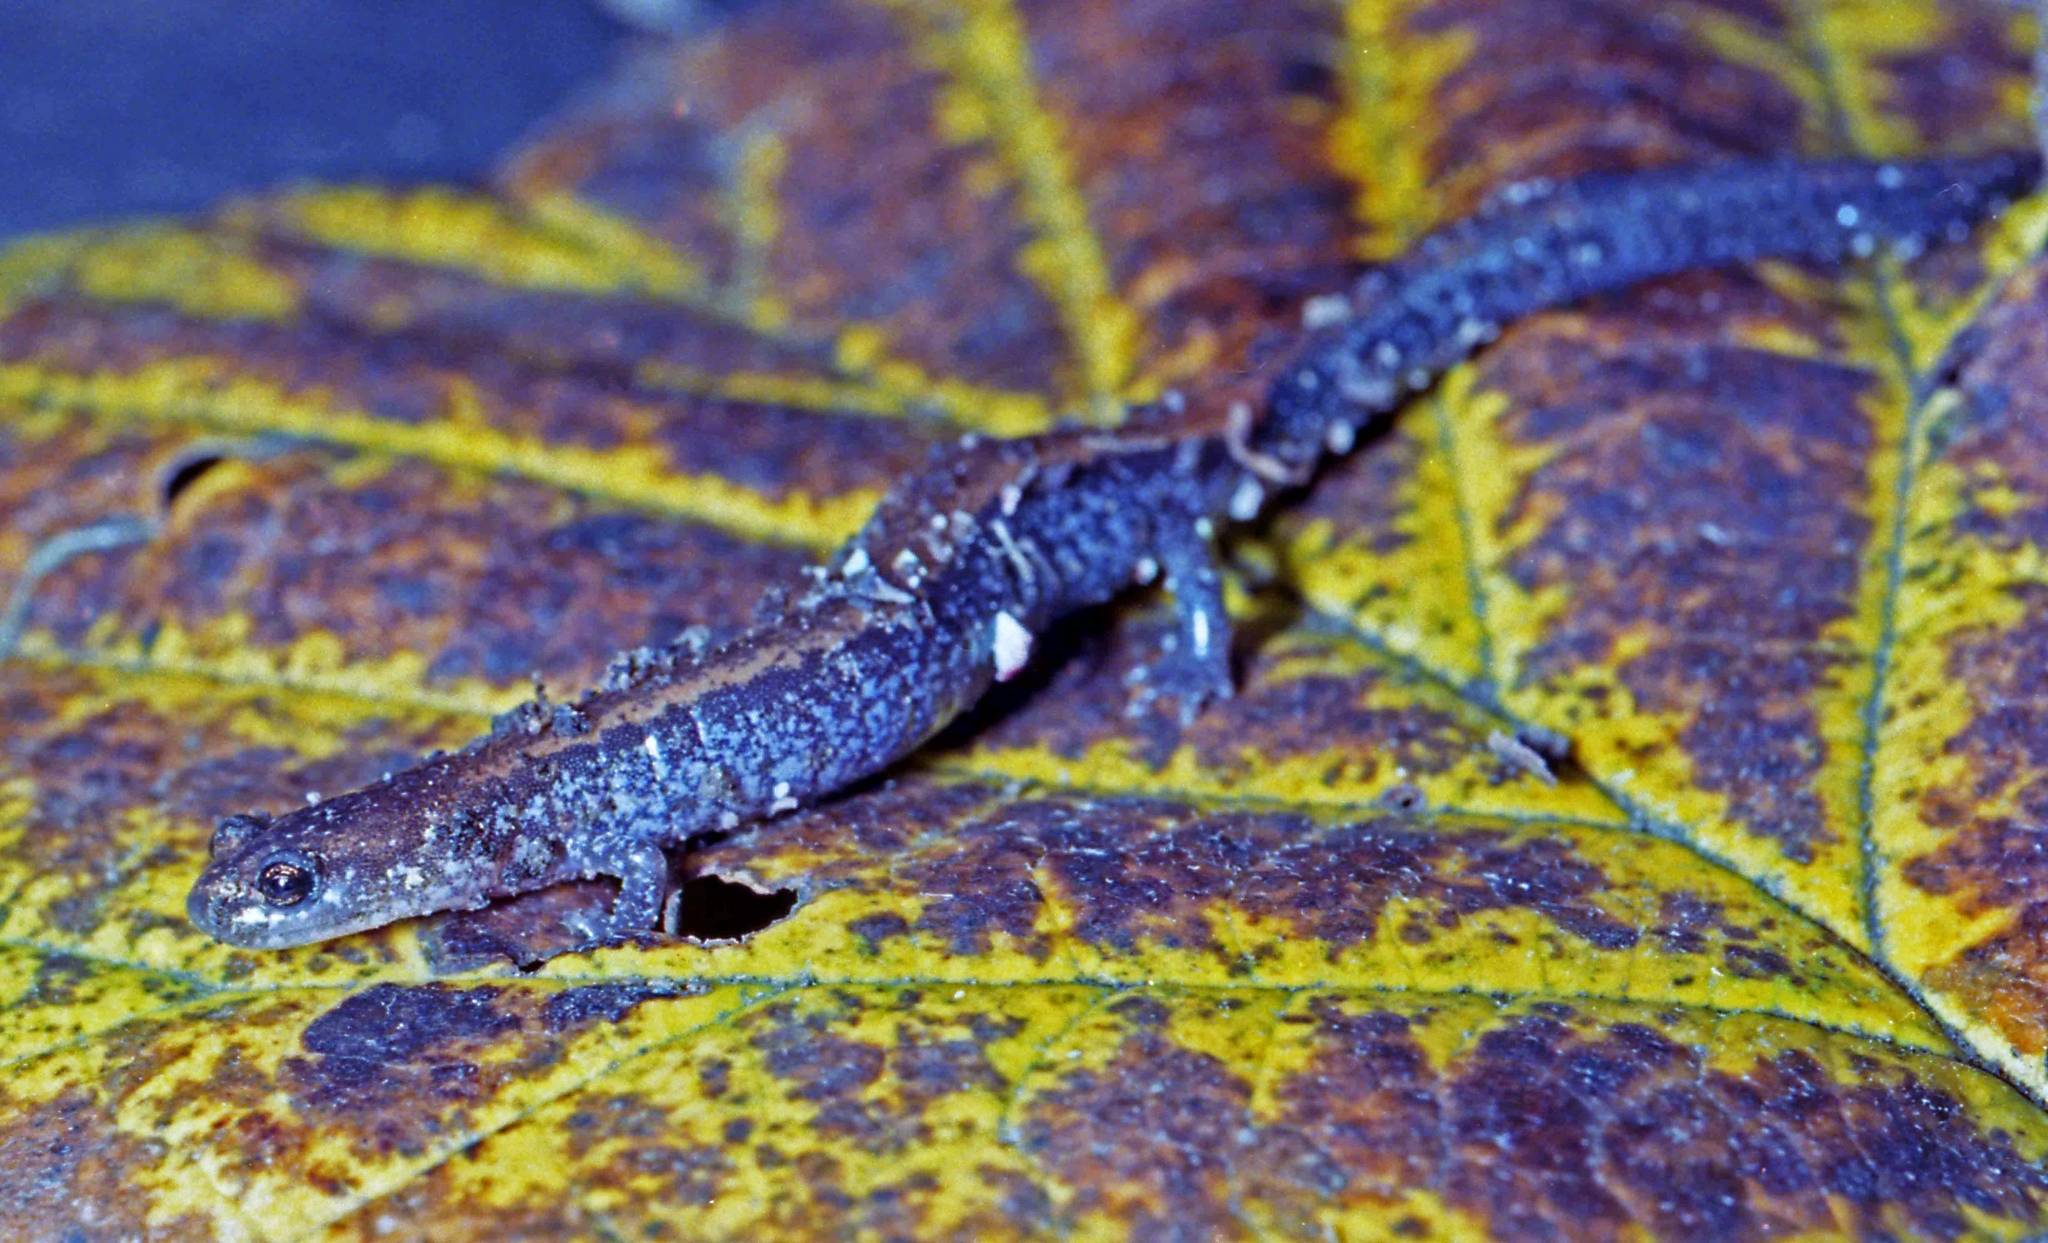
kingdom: Animalia
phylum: Chordata
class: Amphibia
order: Caudata
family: Plethodontidae
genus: Plethodon
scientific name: Plethodon cinereus
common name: Redback salamander
